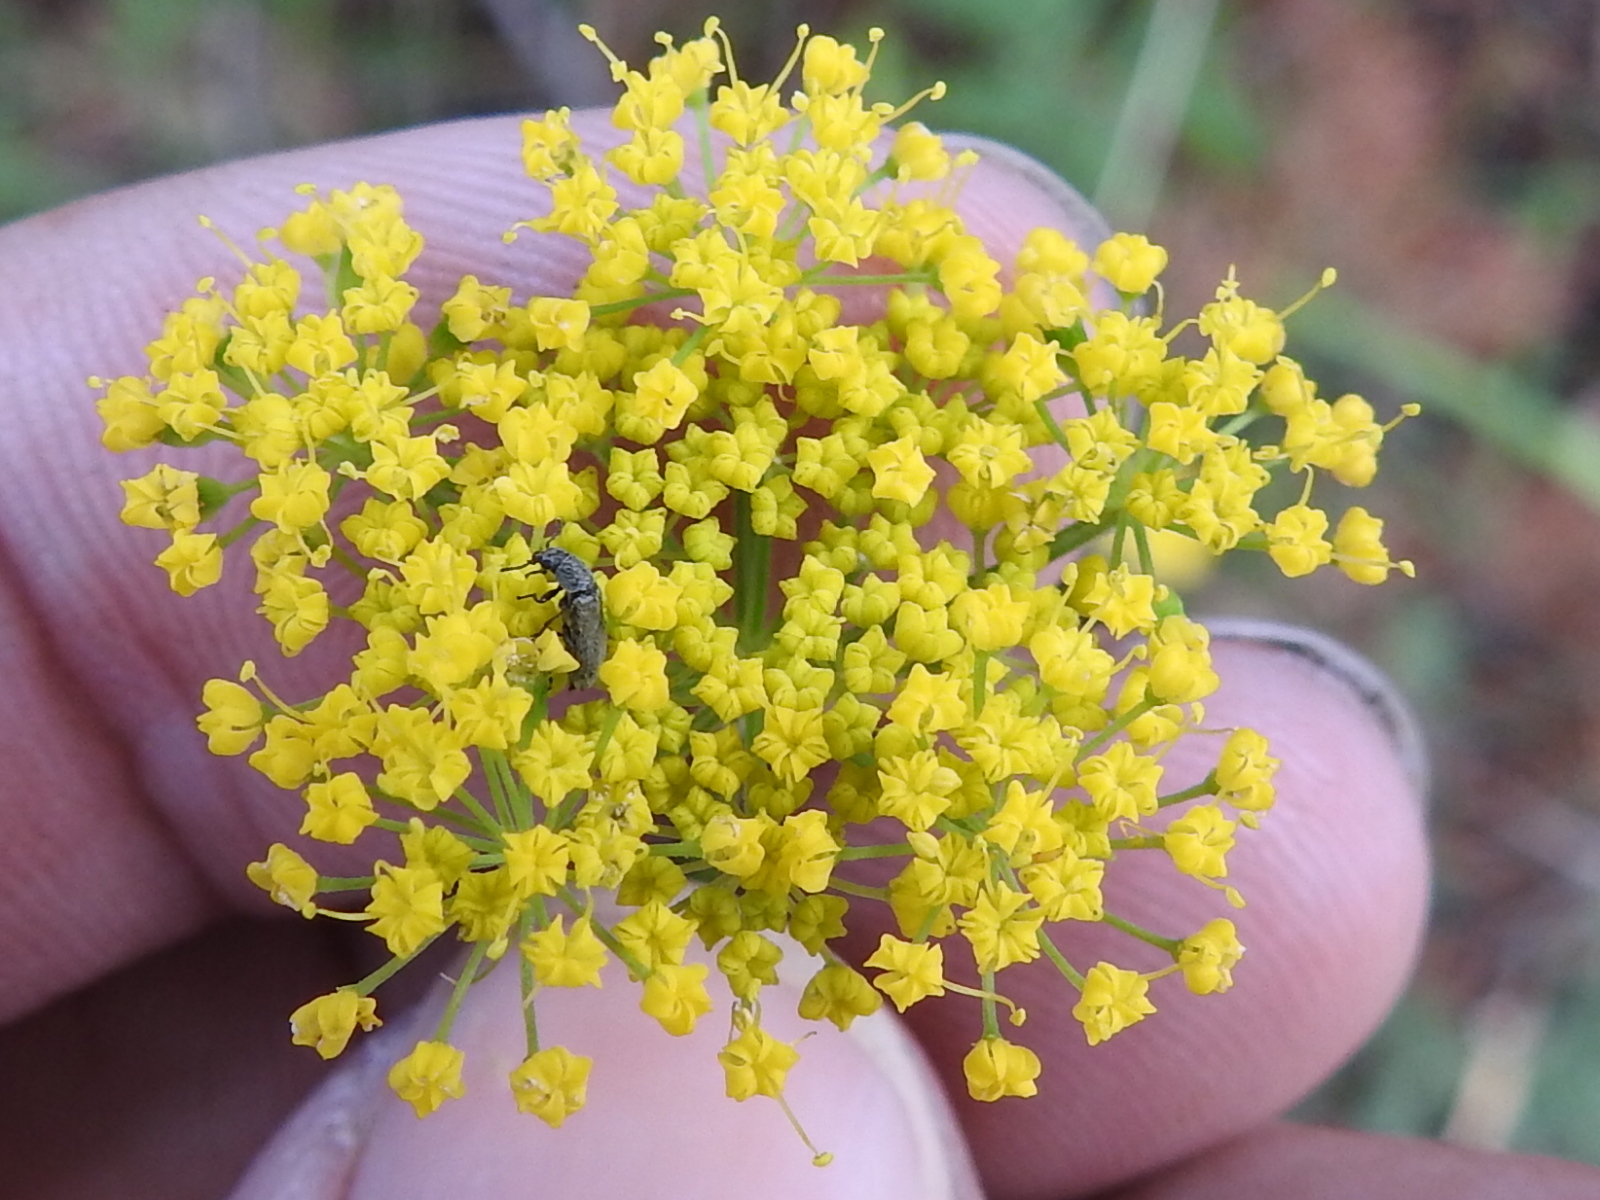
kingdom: Plantae
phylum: Tracheophyta
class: Magnoliopsida
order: Apiales
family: Apiaceae
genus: Cymopterus
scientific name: Cymopterus lemmonii
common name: Lemmon's spring-parsley
